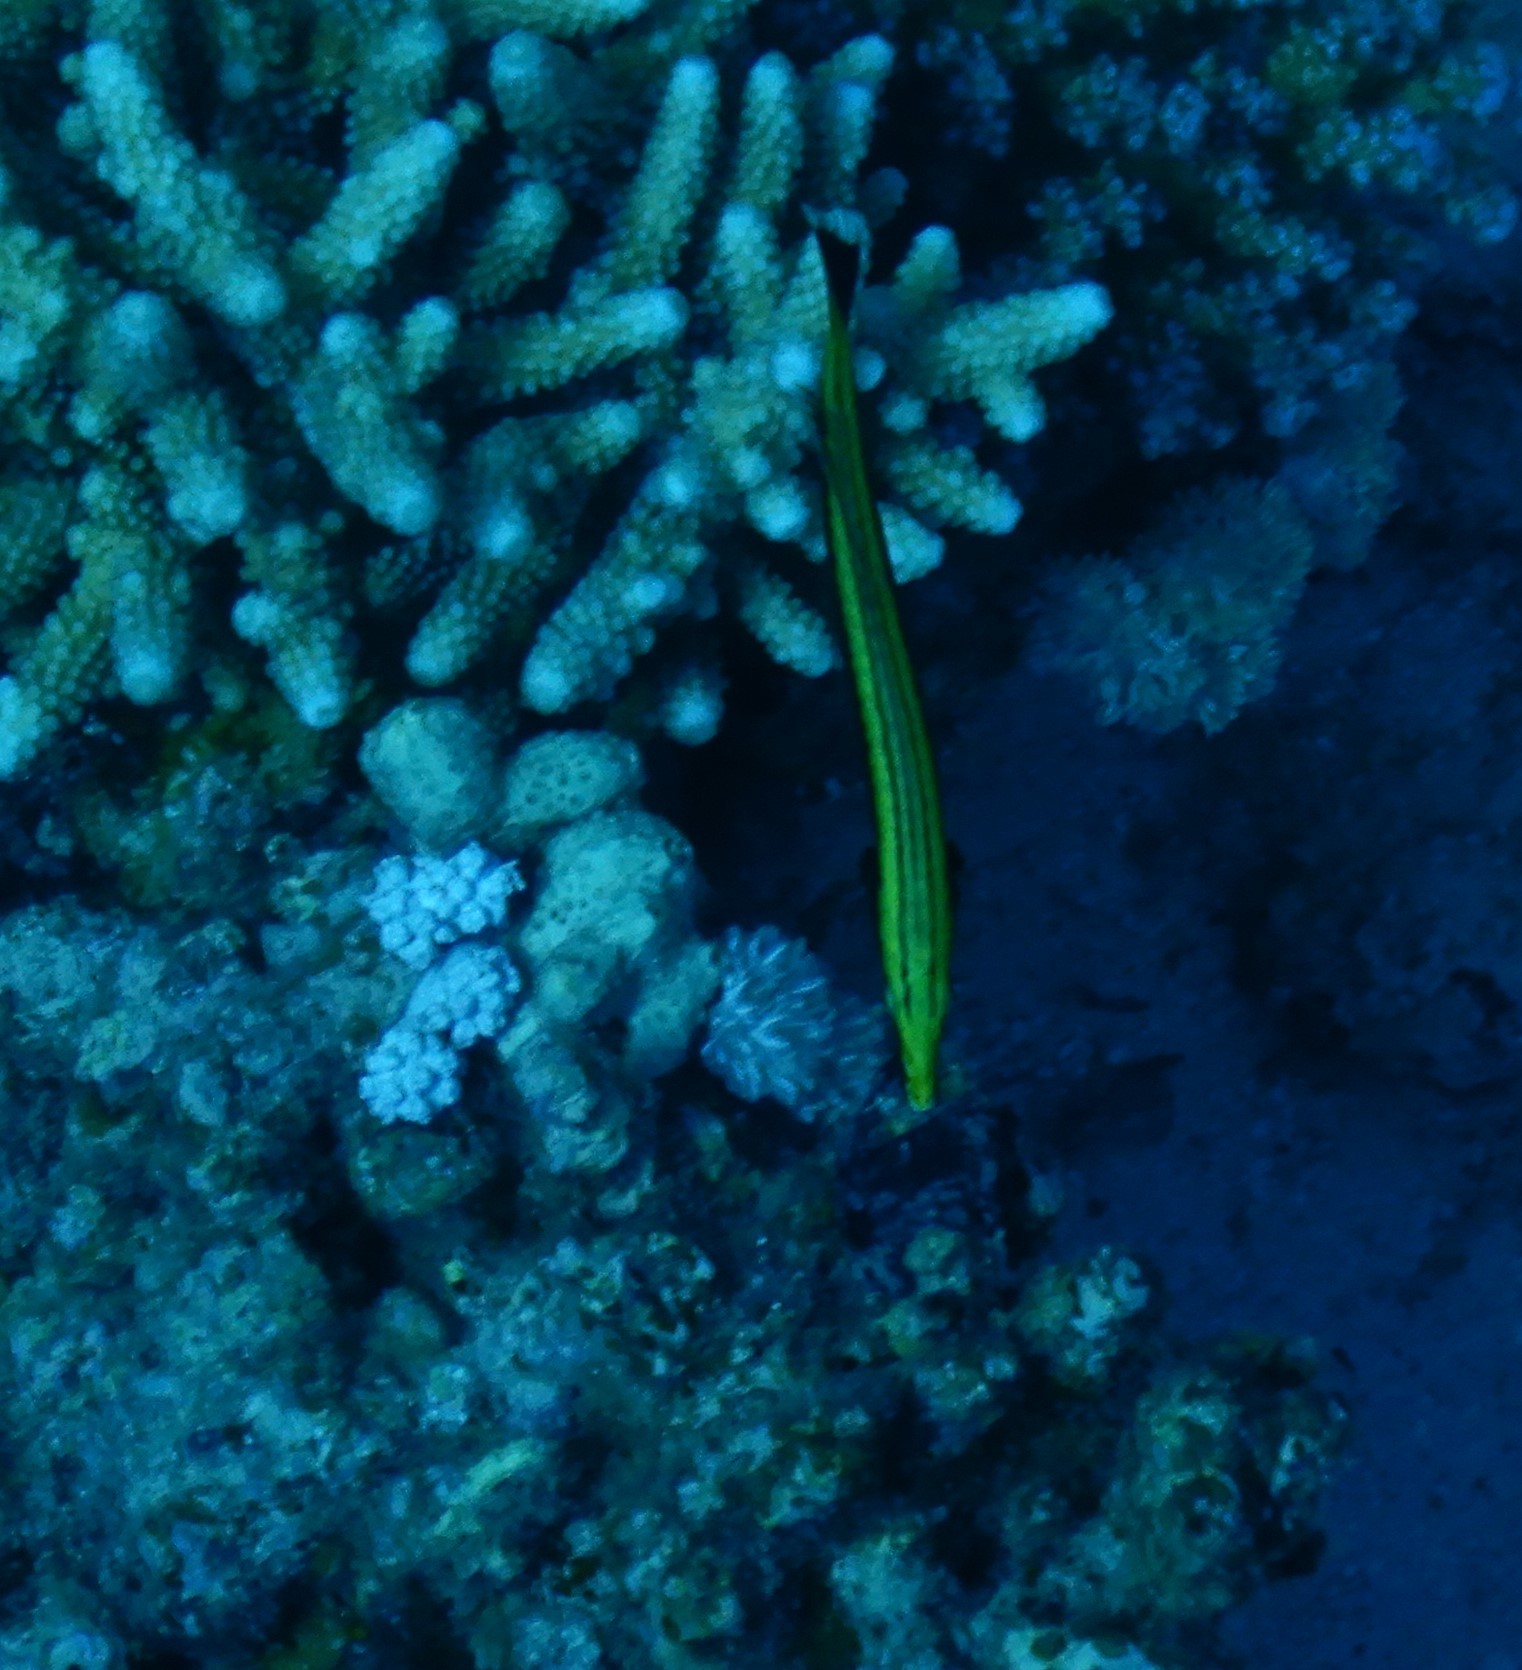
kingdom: Animalia
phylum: Chordata
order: Perciformes
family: Labridae
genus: Hologymnosus
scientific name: Hologymnosus annulatus
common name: Ring wrasse
